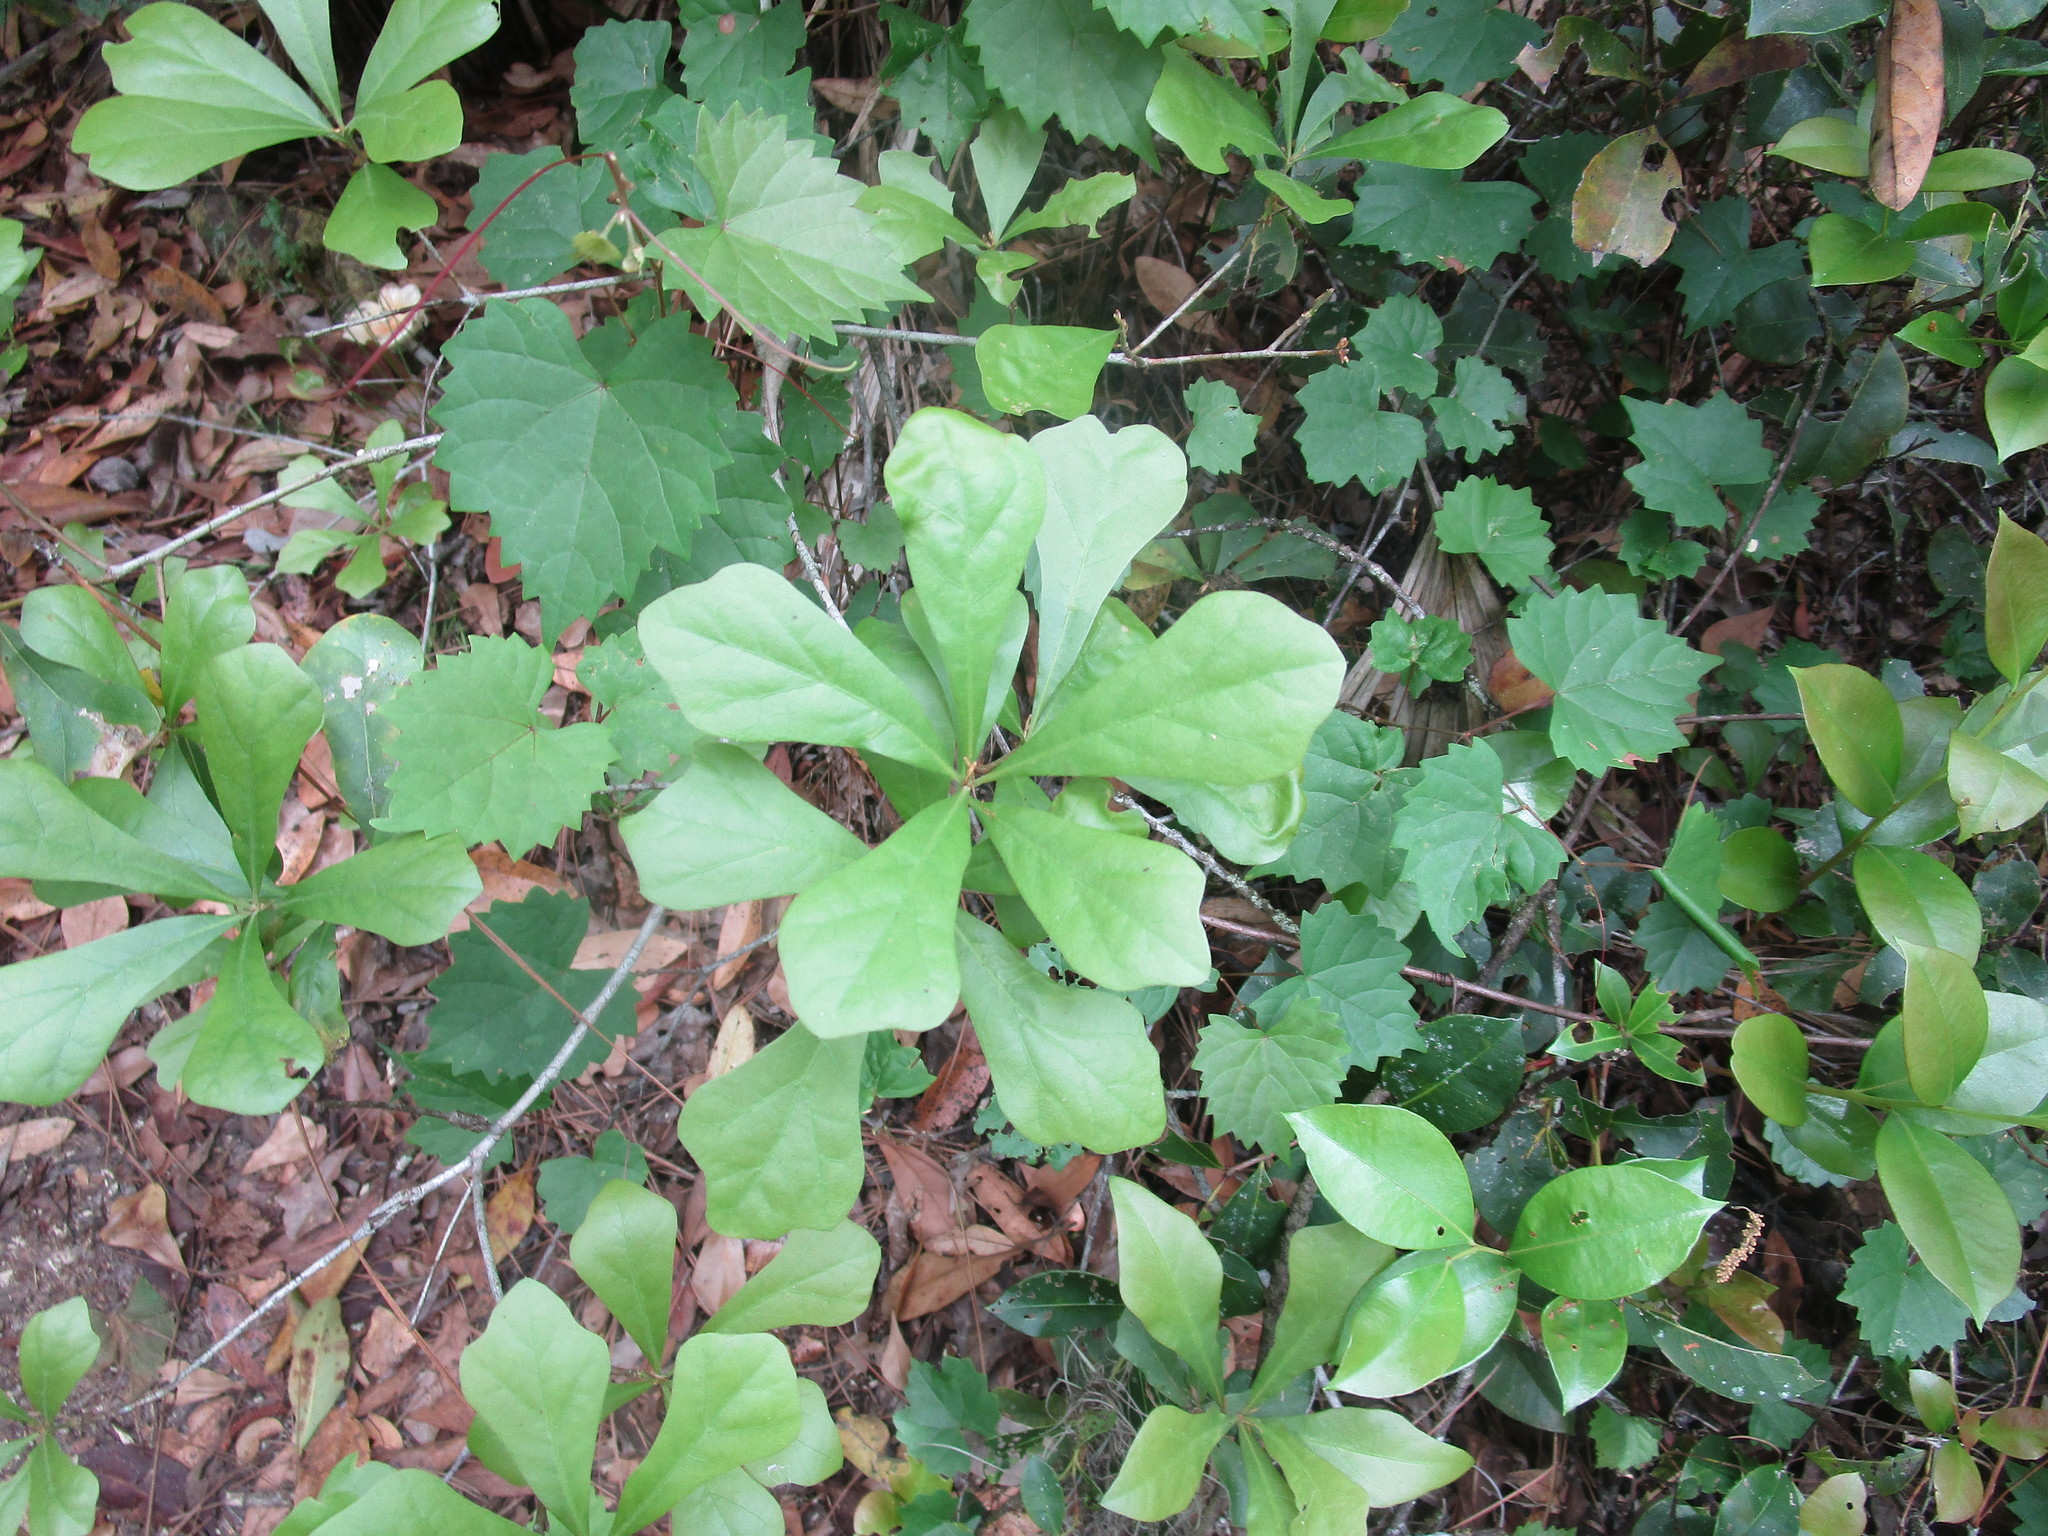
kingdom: Plantae
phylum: Tracheophyta
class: Magnoliopsida
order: Fagales
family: Fagaceae
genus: Quercus
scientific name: Quercus nigra
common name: Water oak
